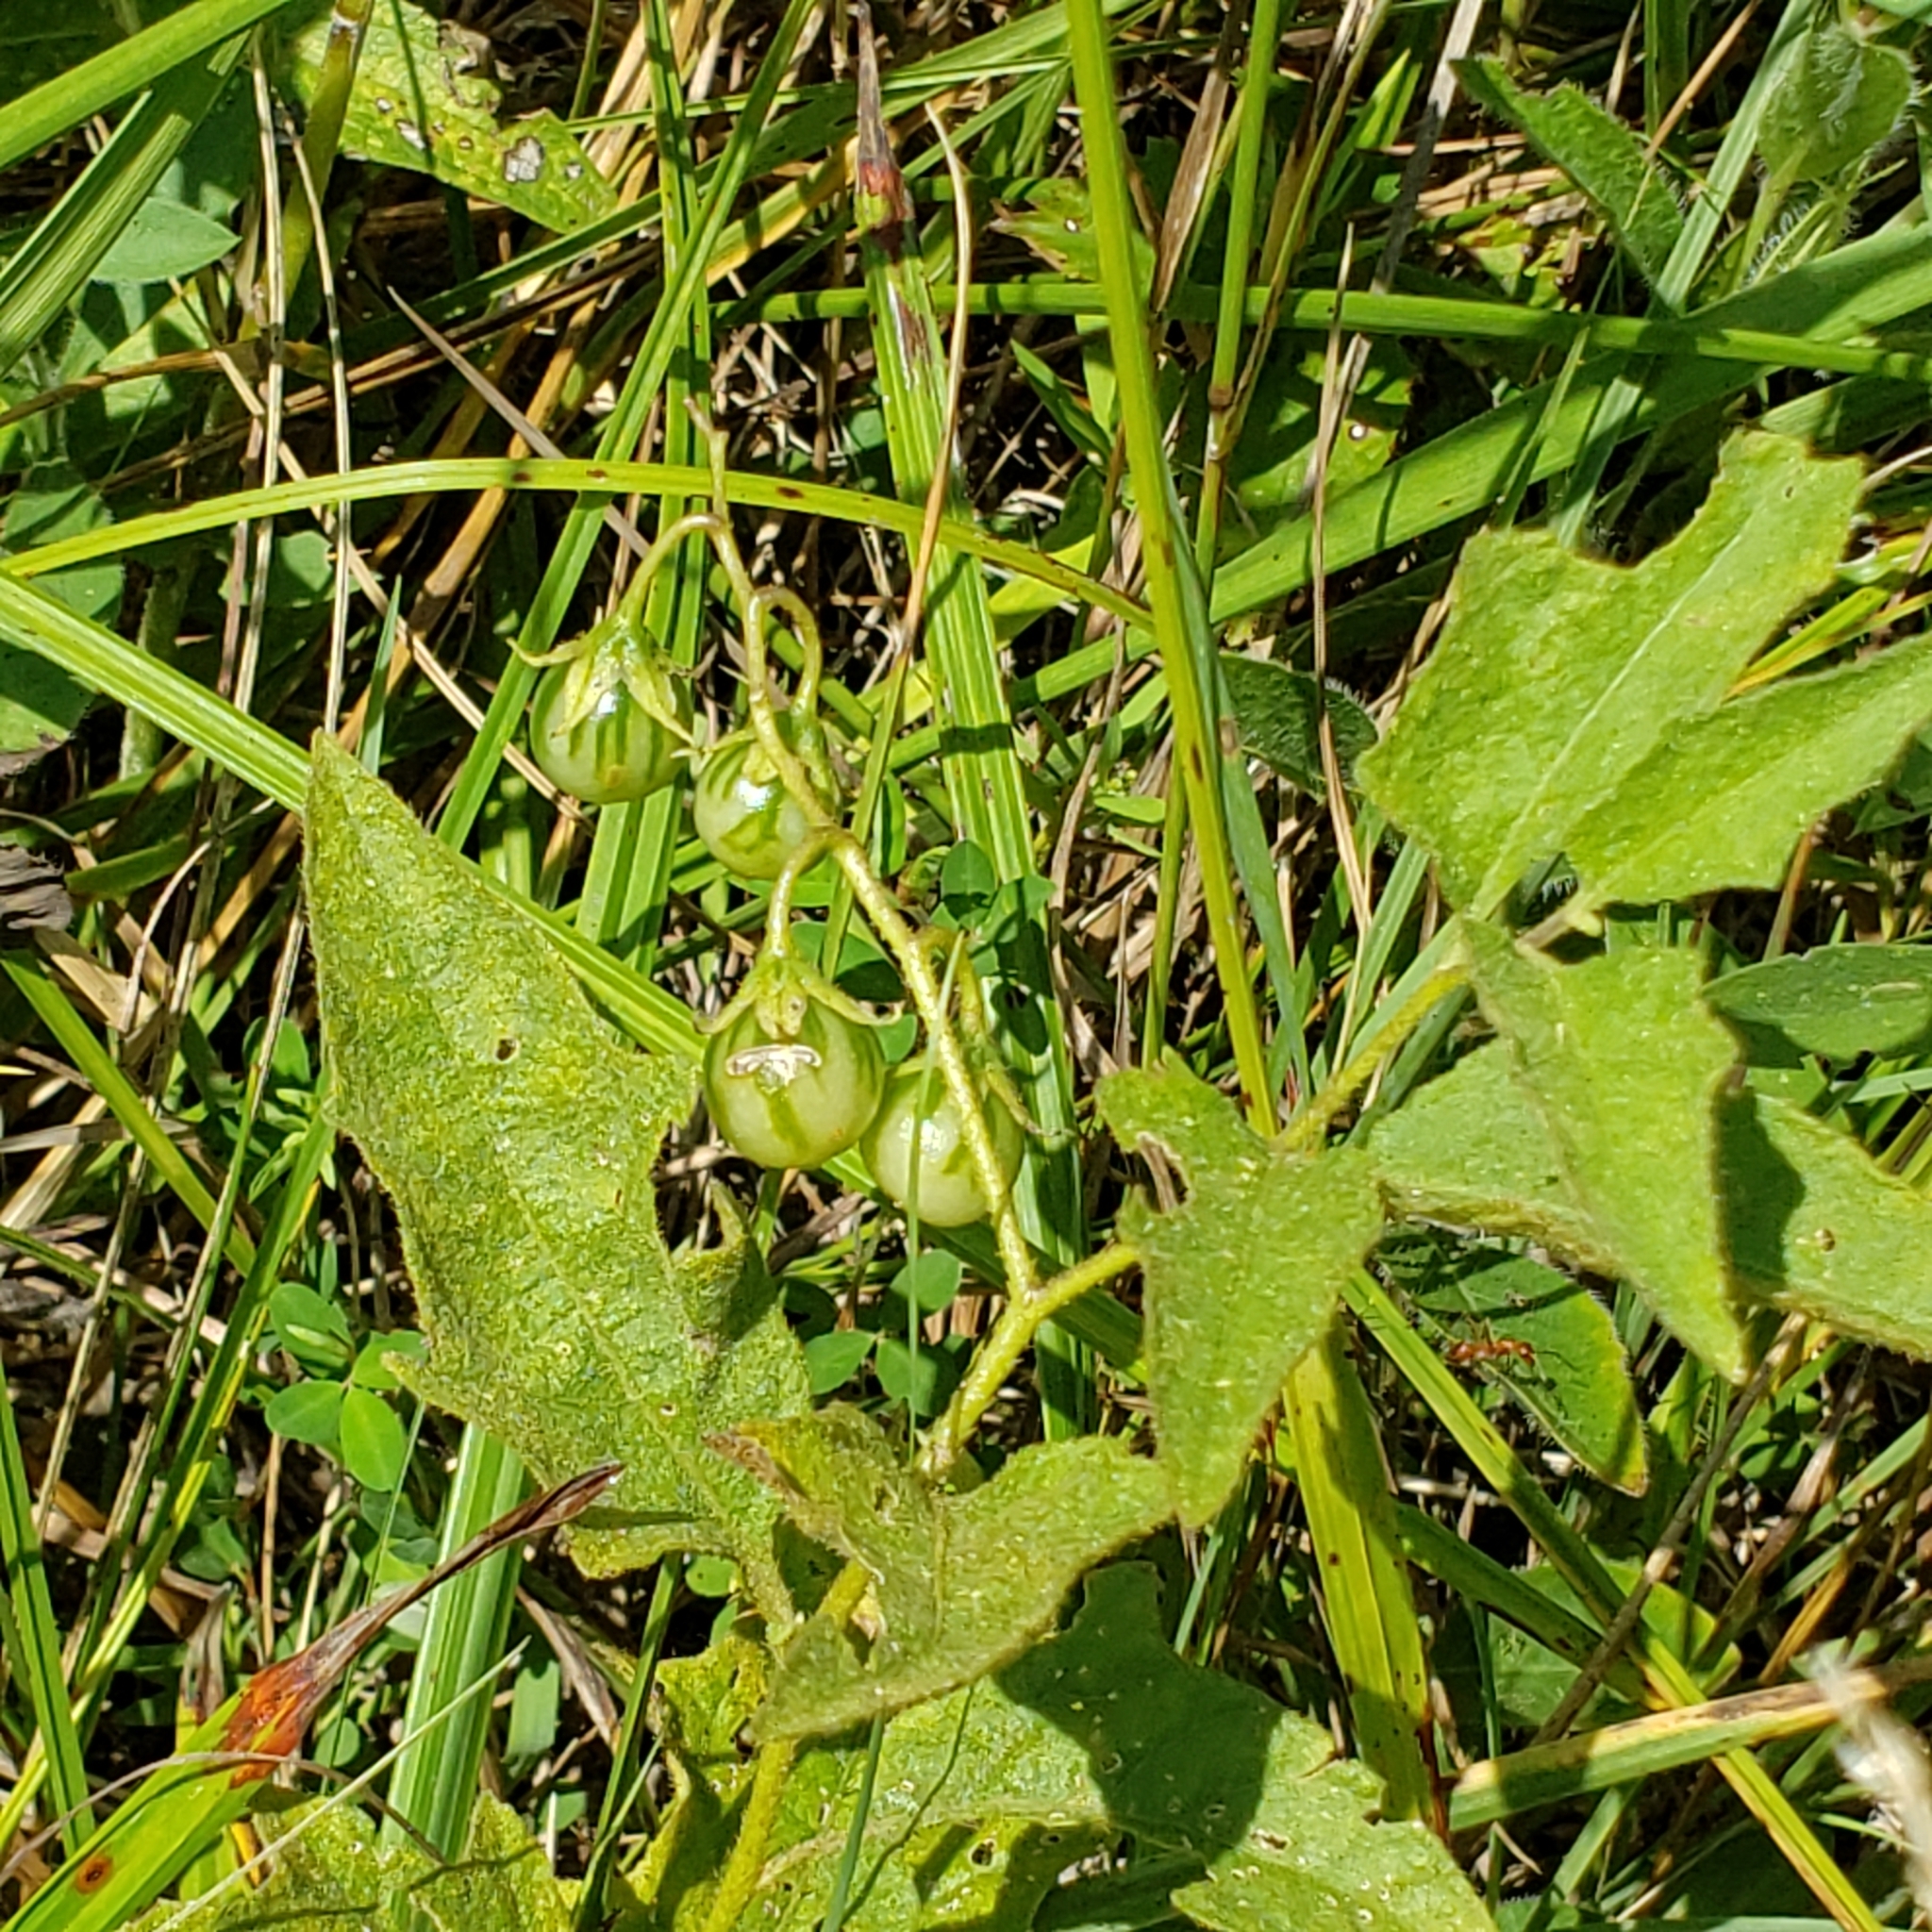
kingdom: Plantae
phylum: Tracheophyta
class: Magnoliopsida
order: Solanales
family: Solanaceae
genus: Solanum
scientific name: Solanum carolinense
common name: Horse-nettle
